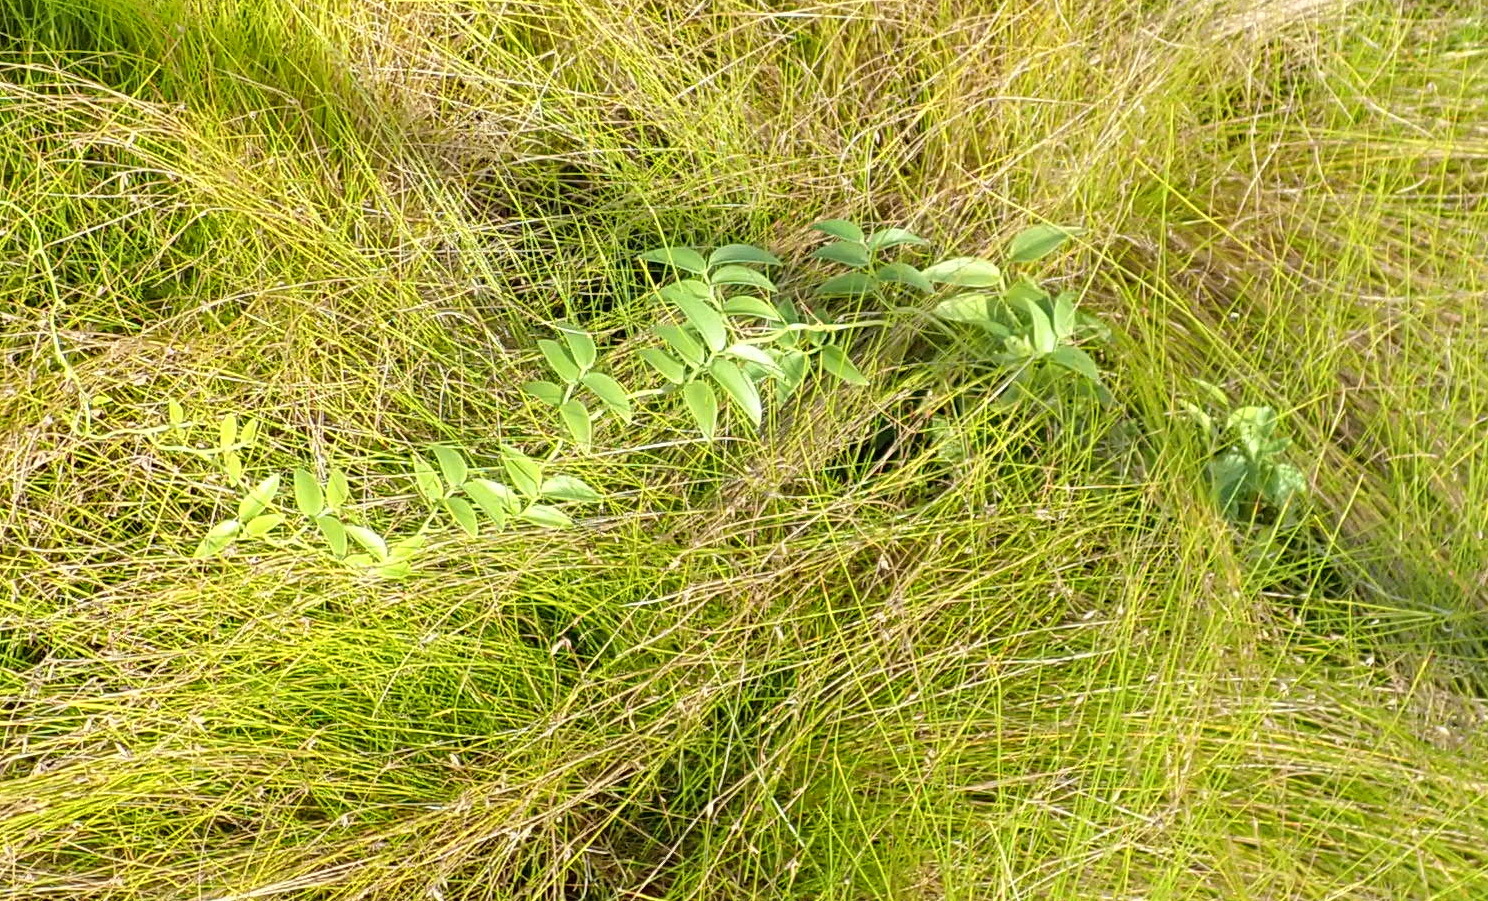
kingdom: Plantae
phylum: Tracheophyta
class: Liliopsida
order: Asparagales
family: Asparagaceae
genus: Asparagus
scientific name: Asparagus asparagoides
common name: African asparagus fern
